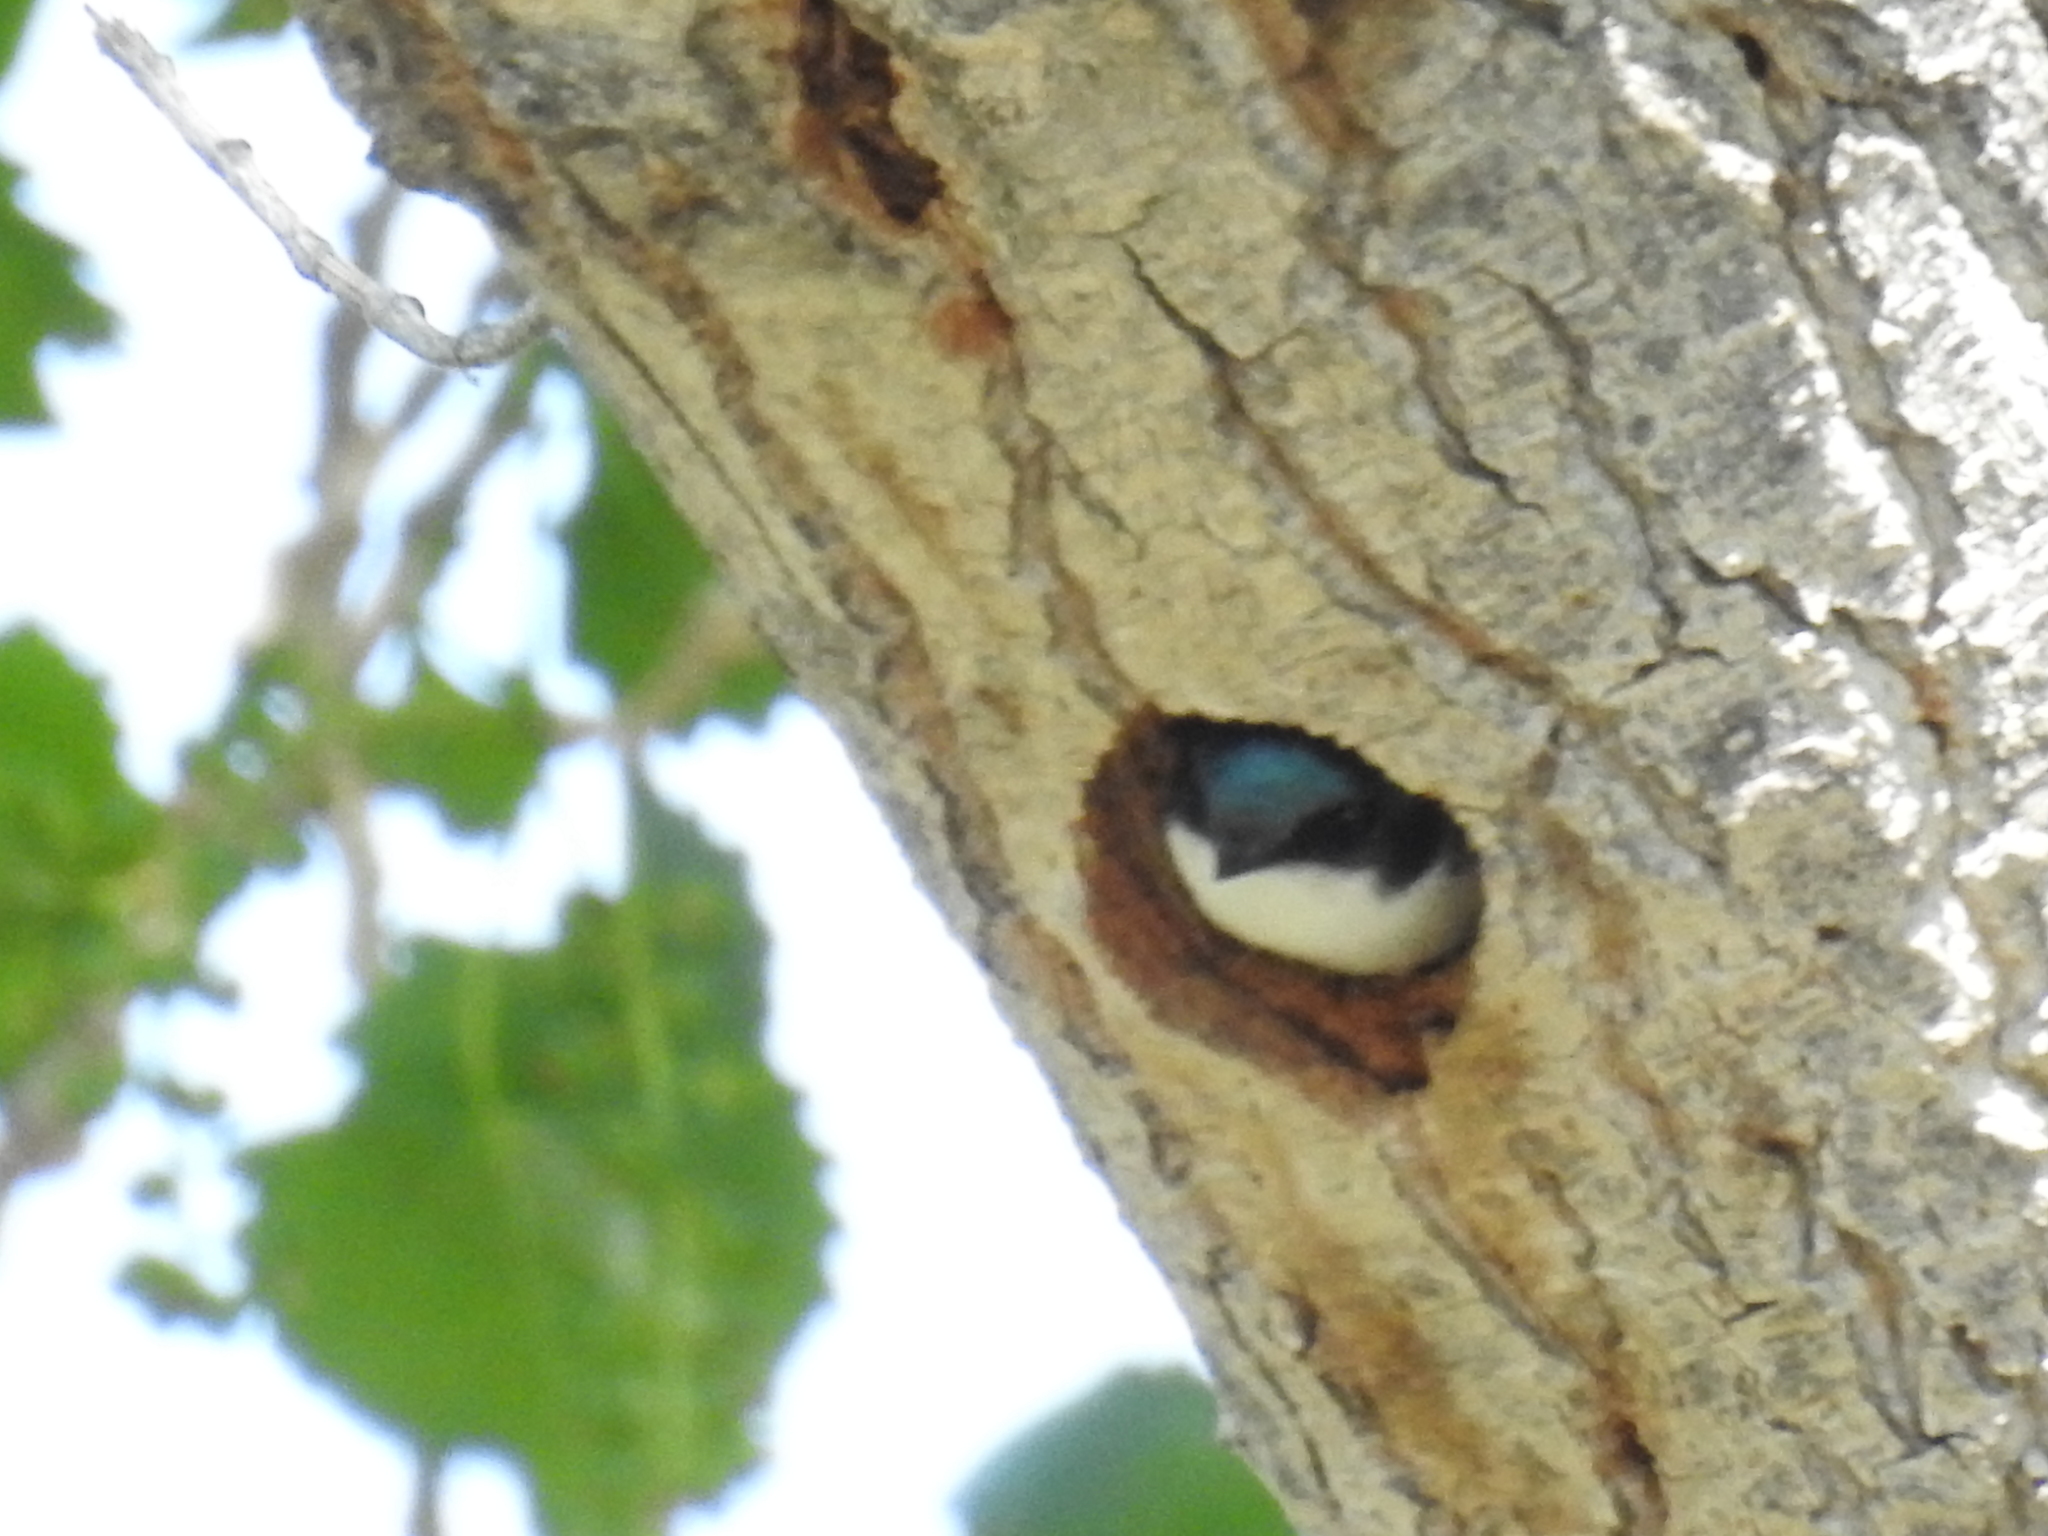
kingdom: Animalia
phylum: Chordata
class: Aves
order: Passeriformes
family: Hirundinidae
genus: Tachycineta
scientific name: Tachycineta bicolor
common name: Tree swallow
